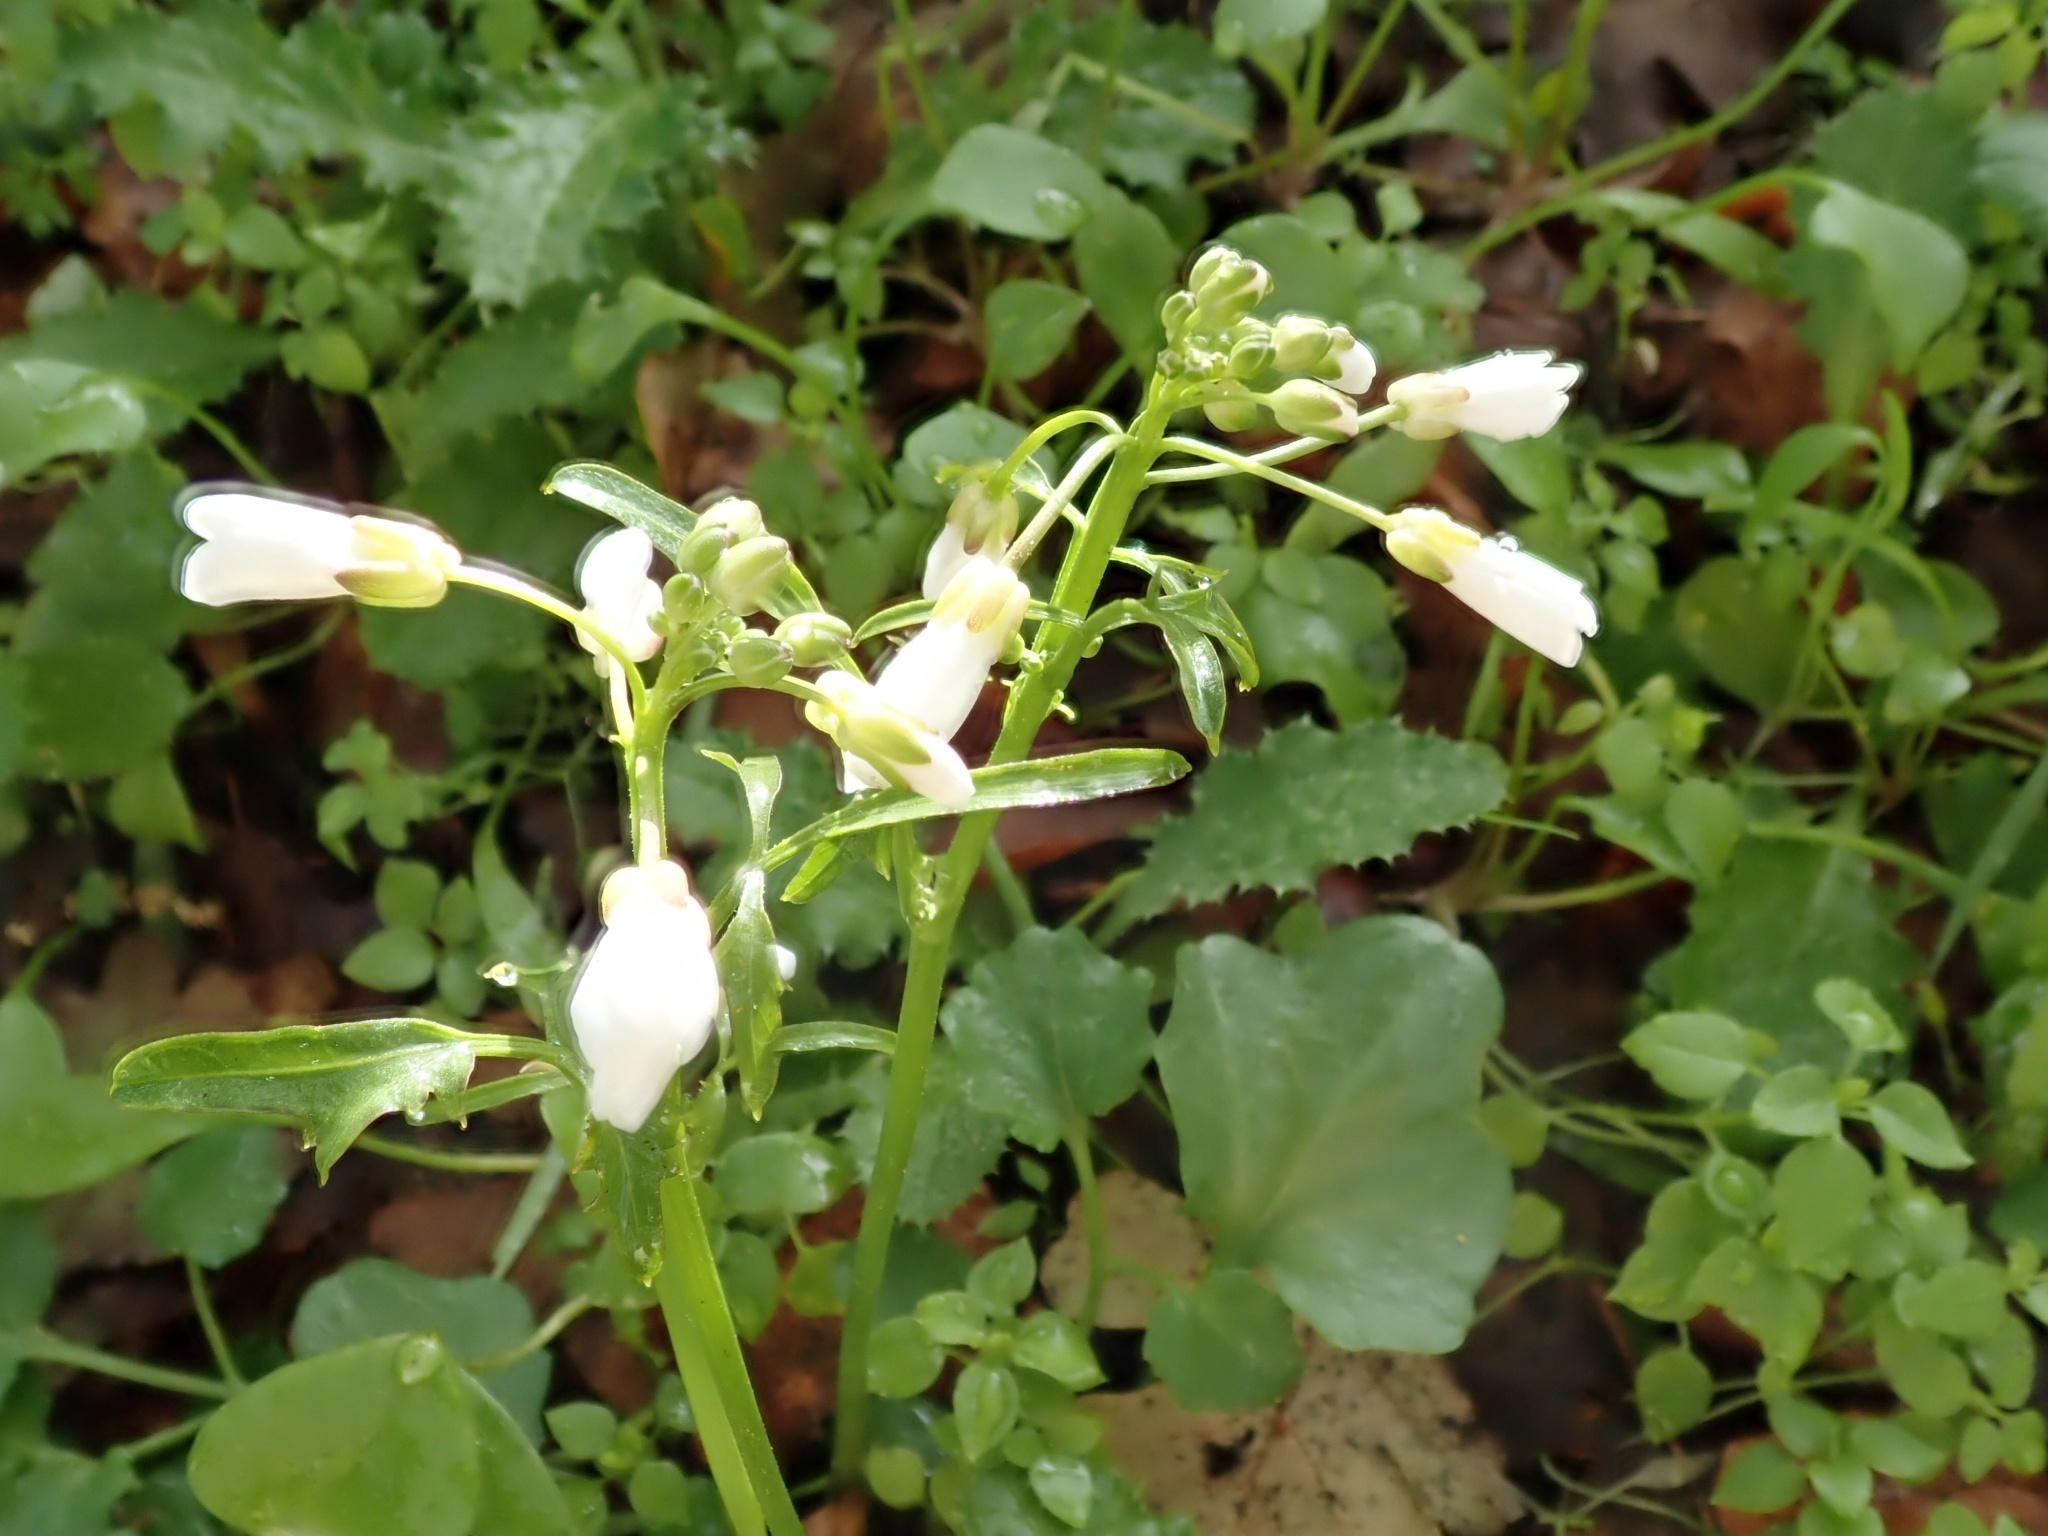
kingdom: Plantae
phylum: Tracheophyta
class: Magnoliopsida
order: Brassicales
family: Brassicaceae
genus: Cardamine
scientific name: Cardamine californica
